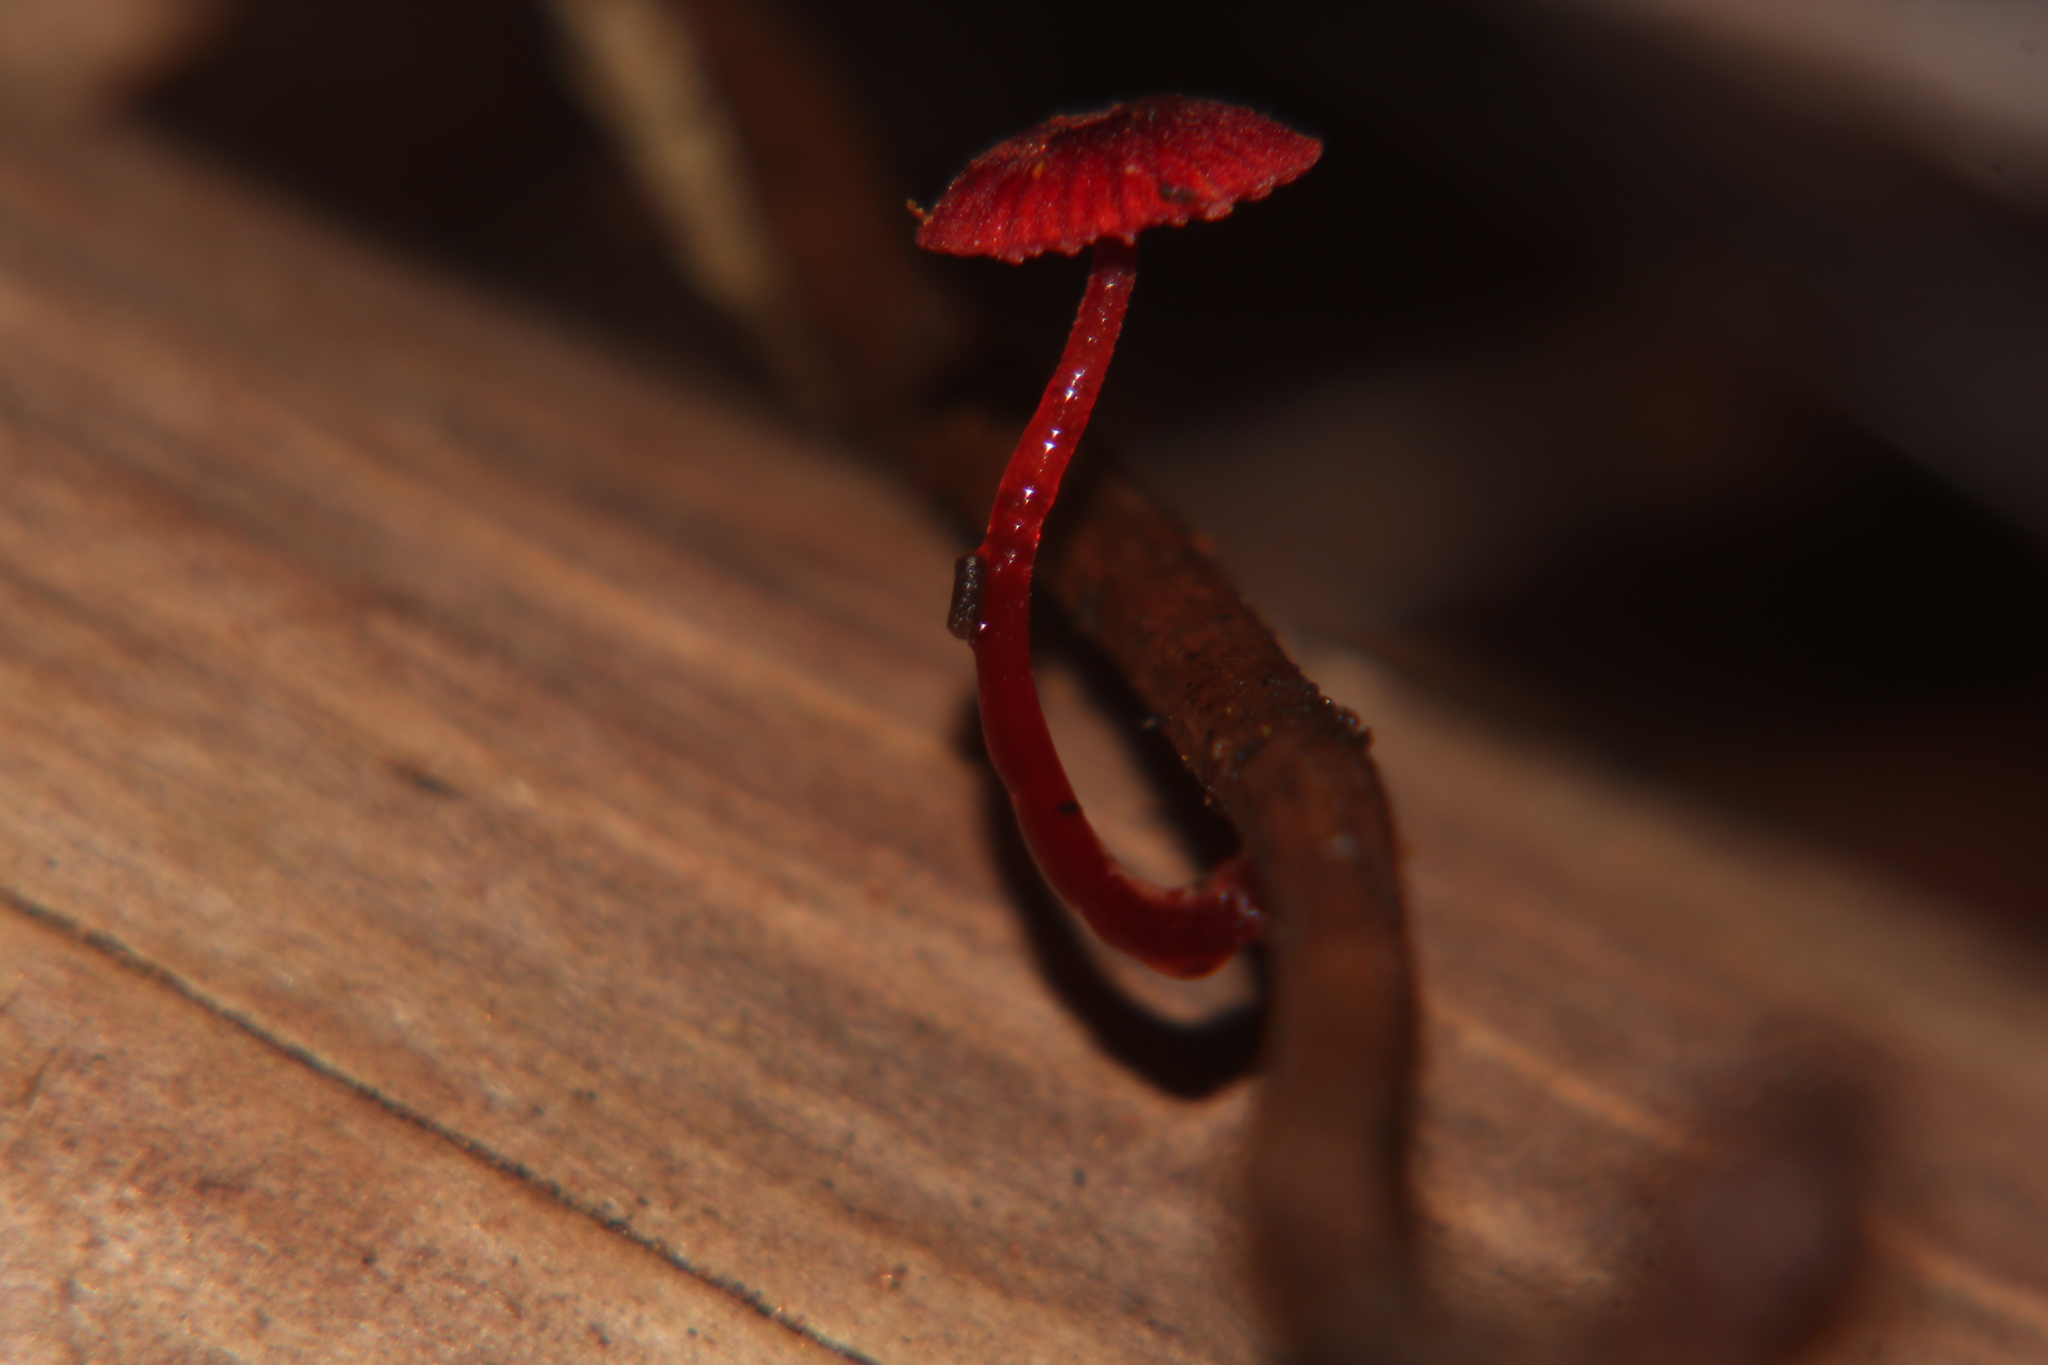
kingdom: Fungi
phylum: Basidiomycota
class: Agaricomycetes
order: Agaricales
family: Mycenaceae
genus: Cruentomycena
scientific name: Cruentomycena viscidocruenta
